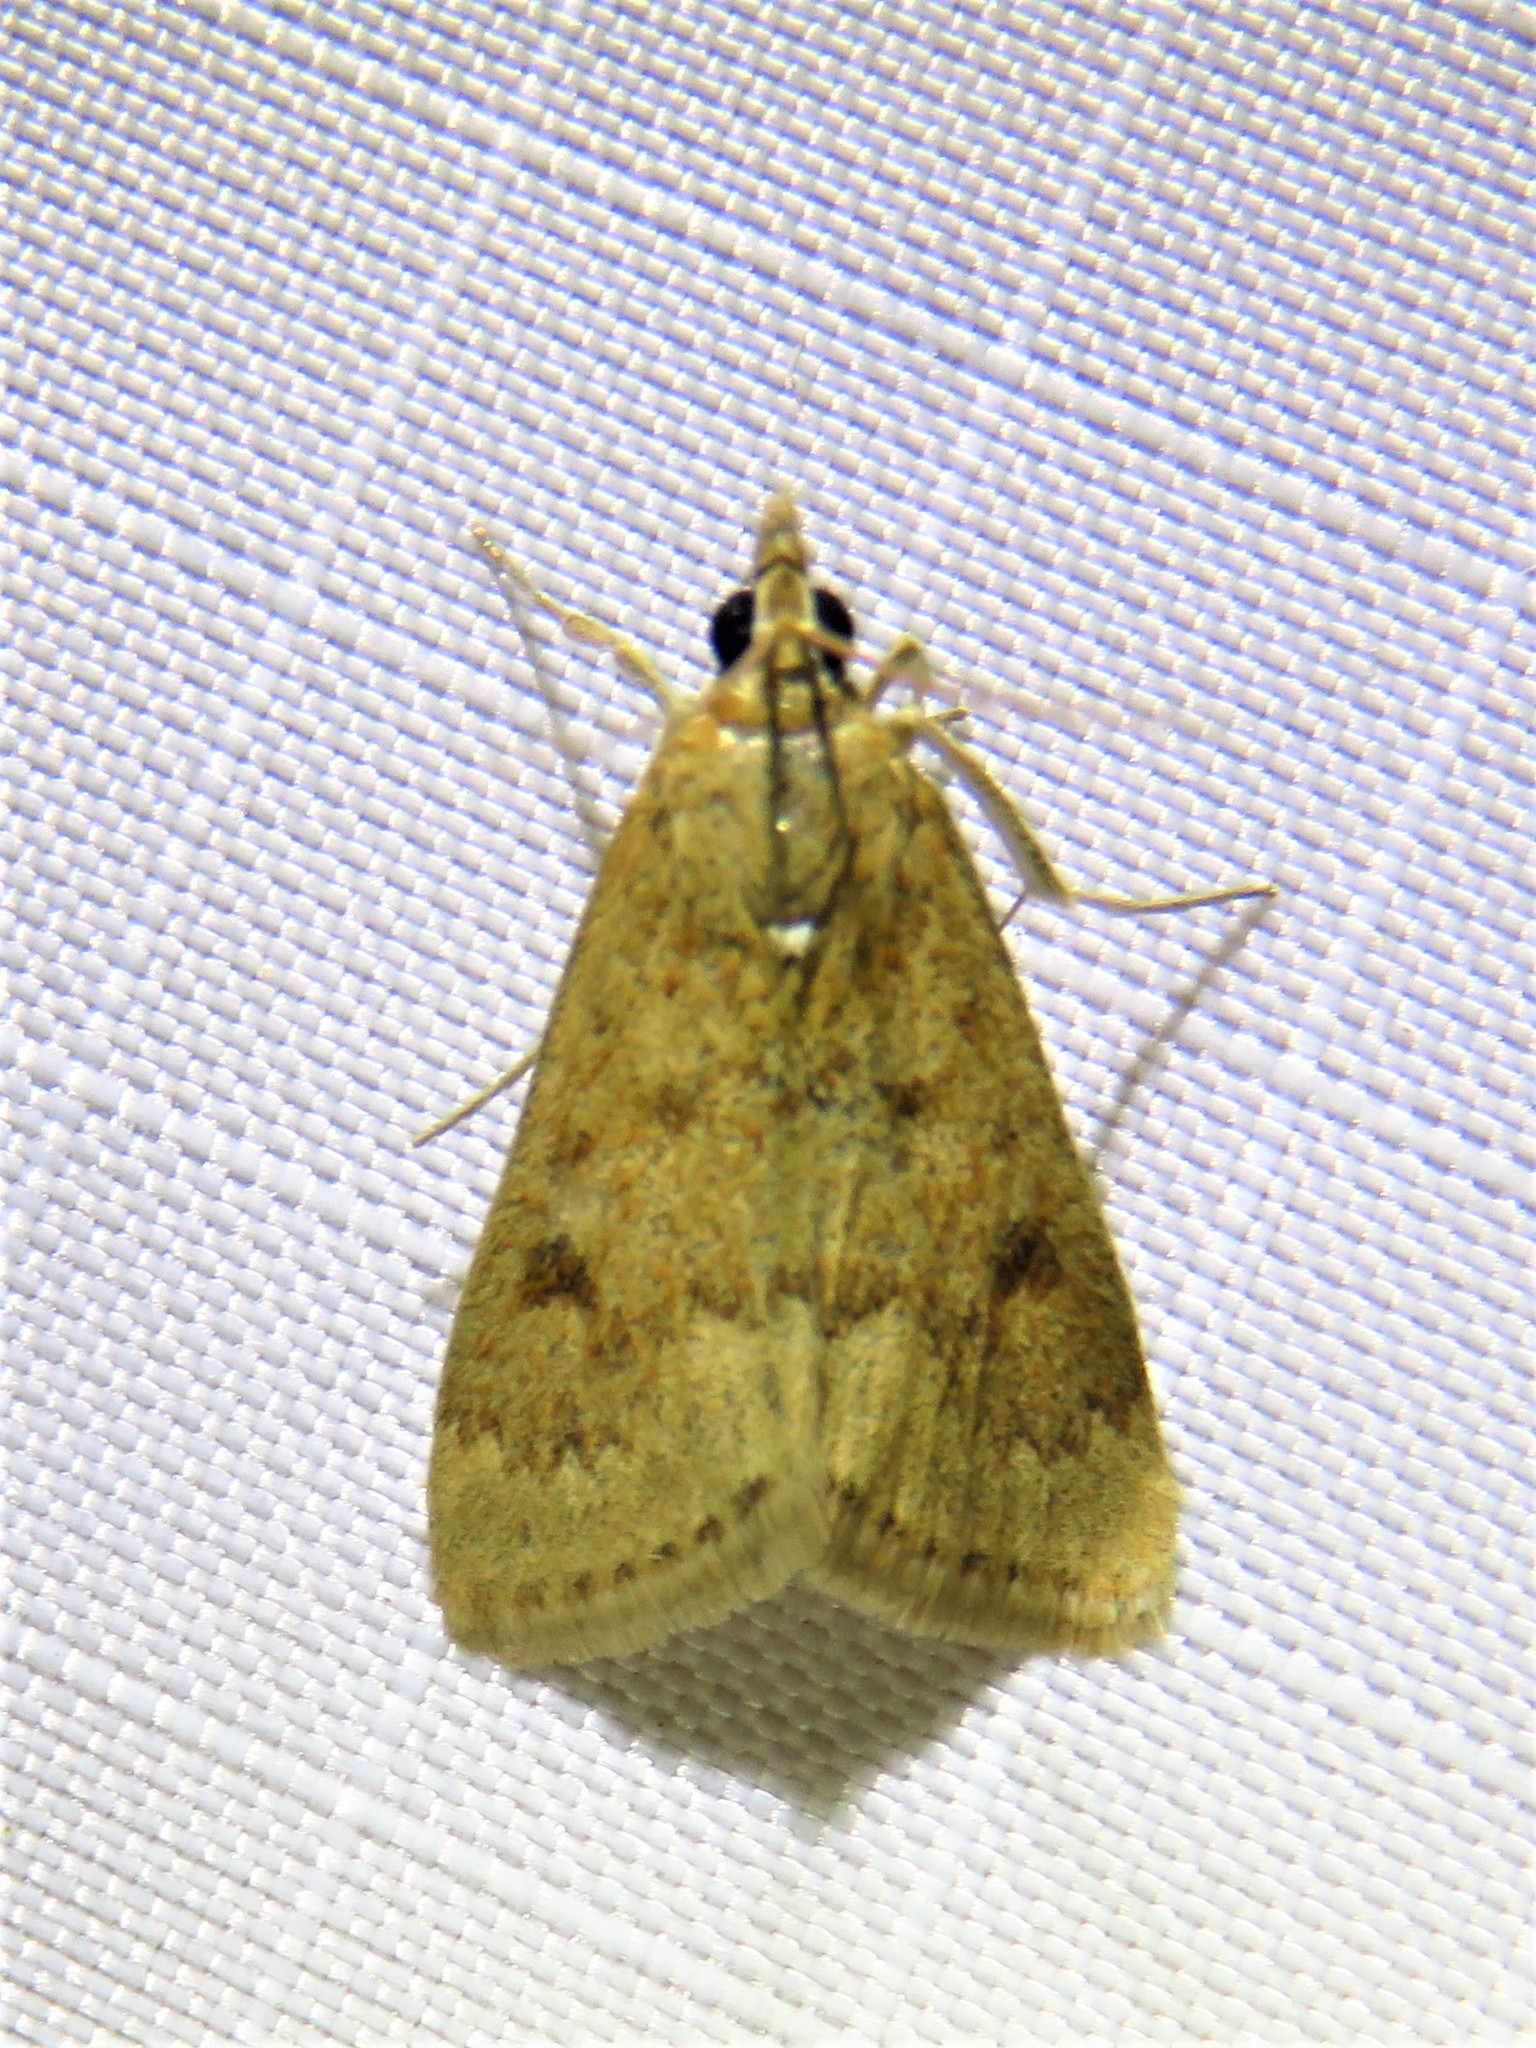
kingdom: Animalia
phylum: Arthropoda
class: Insecta
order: Lepidoptera
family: Crambidae
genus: Achyra
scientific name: Achyra rantalis
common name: Garden webworm
